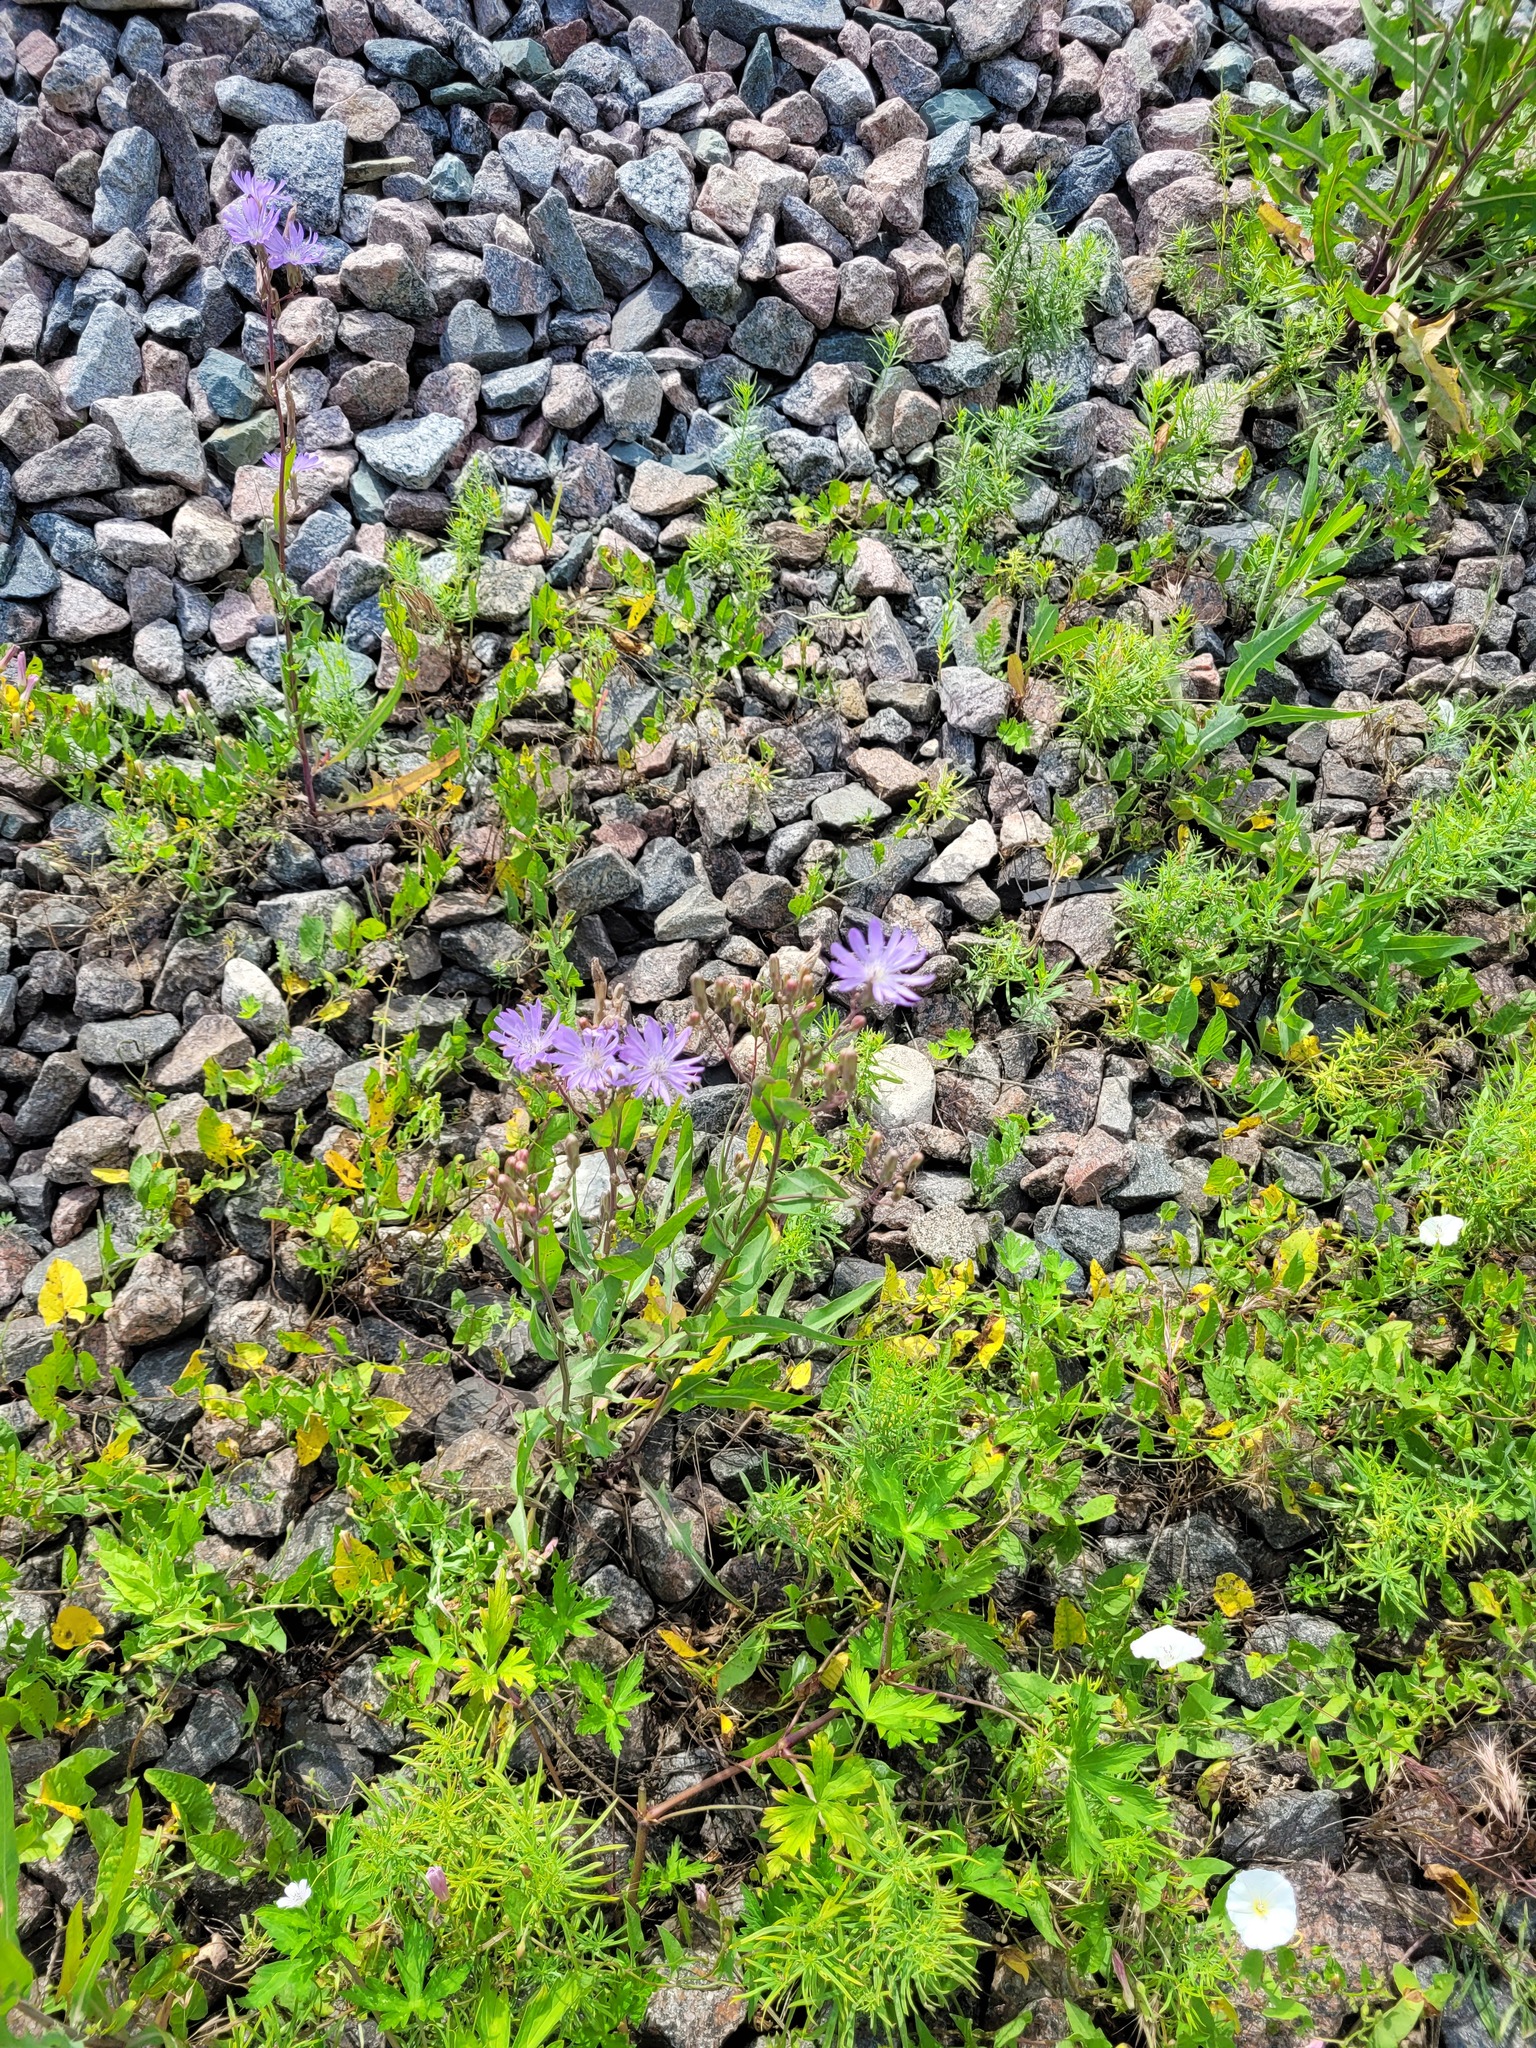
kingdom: Plantae
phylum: Tracheophyta
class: Magnoliopsida
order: Asterales
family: Asteraceae
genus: Lactuca
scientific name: Lactuca tatarica
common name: Blue lettuce
